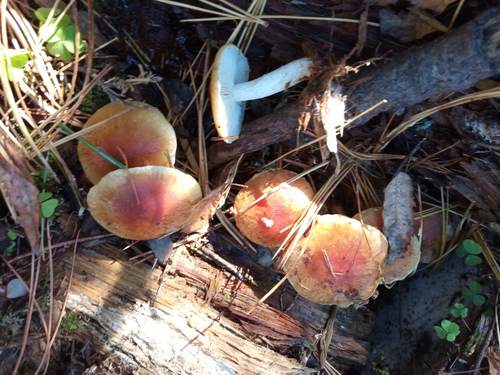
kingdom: Fungi
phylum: Basidiomycota
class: Agaricomycetes
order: Agaricales
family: Strophariaceae
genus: Hypholoma
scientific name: Hypholoma lateritium
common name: Brick caps
